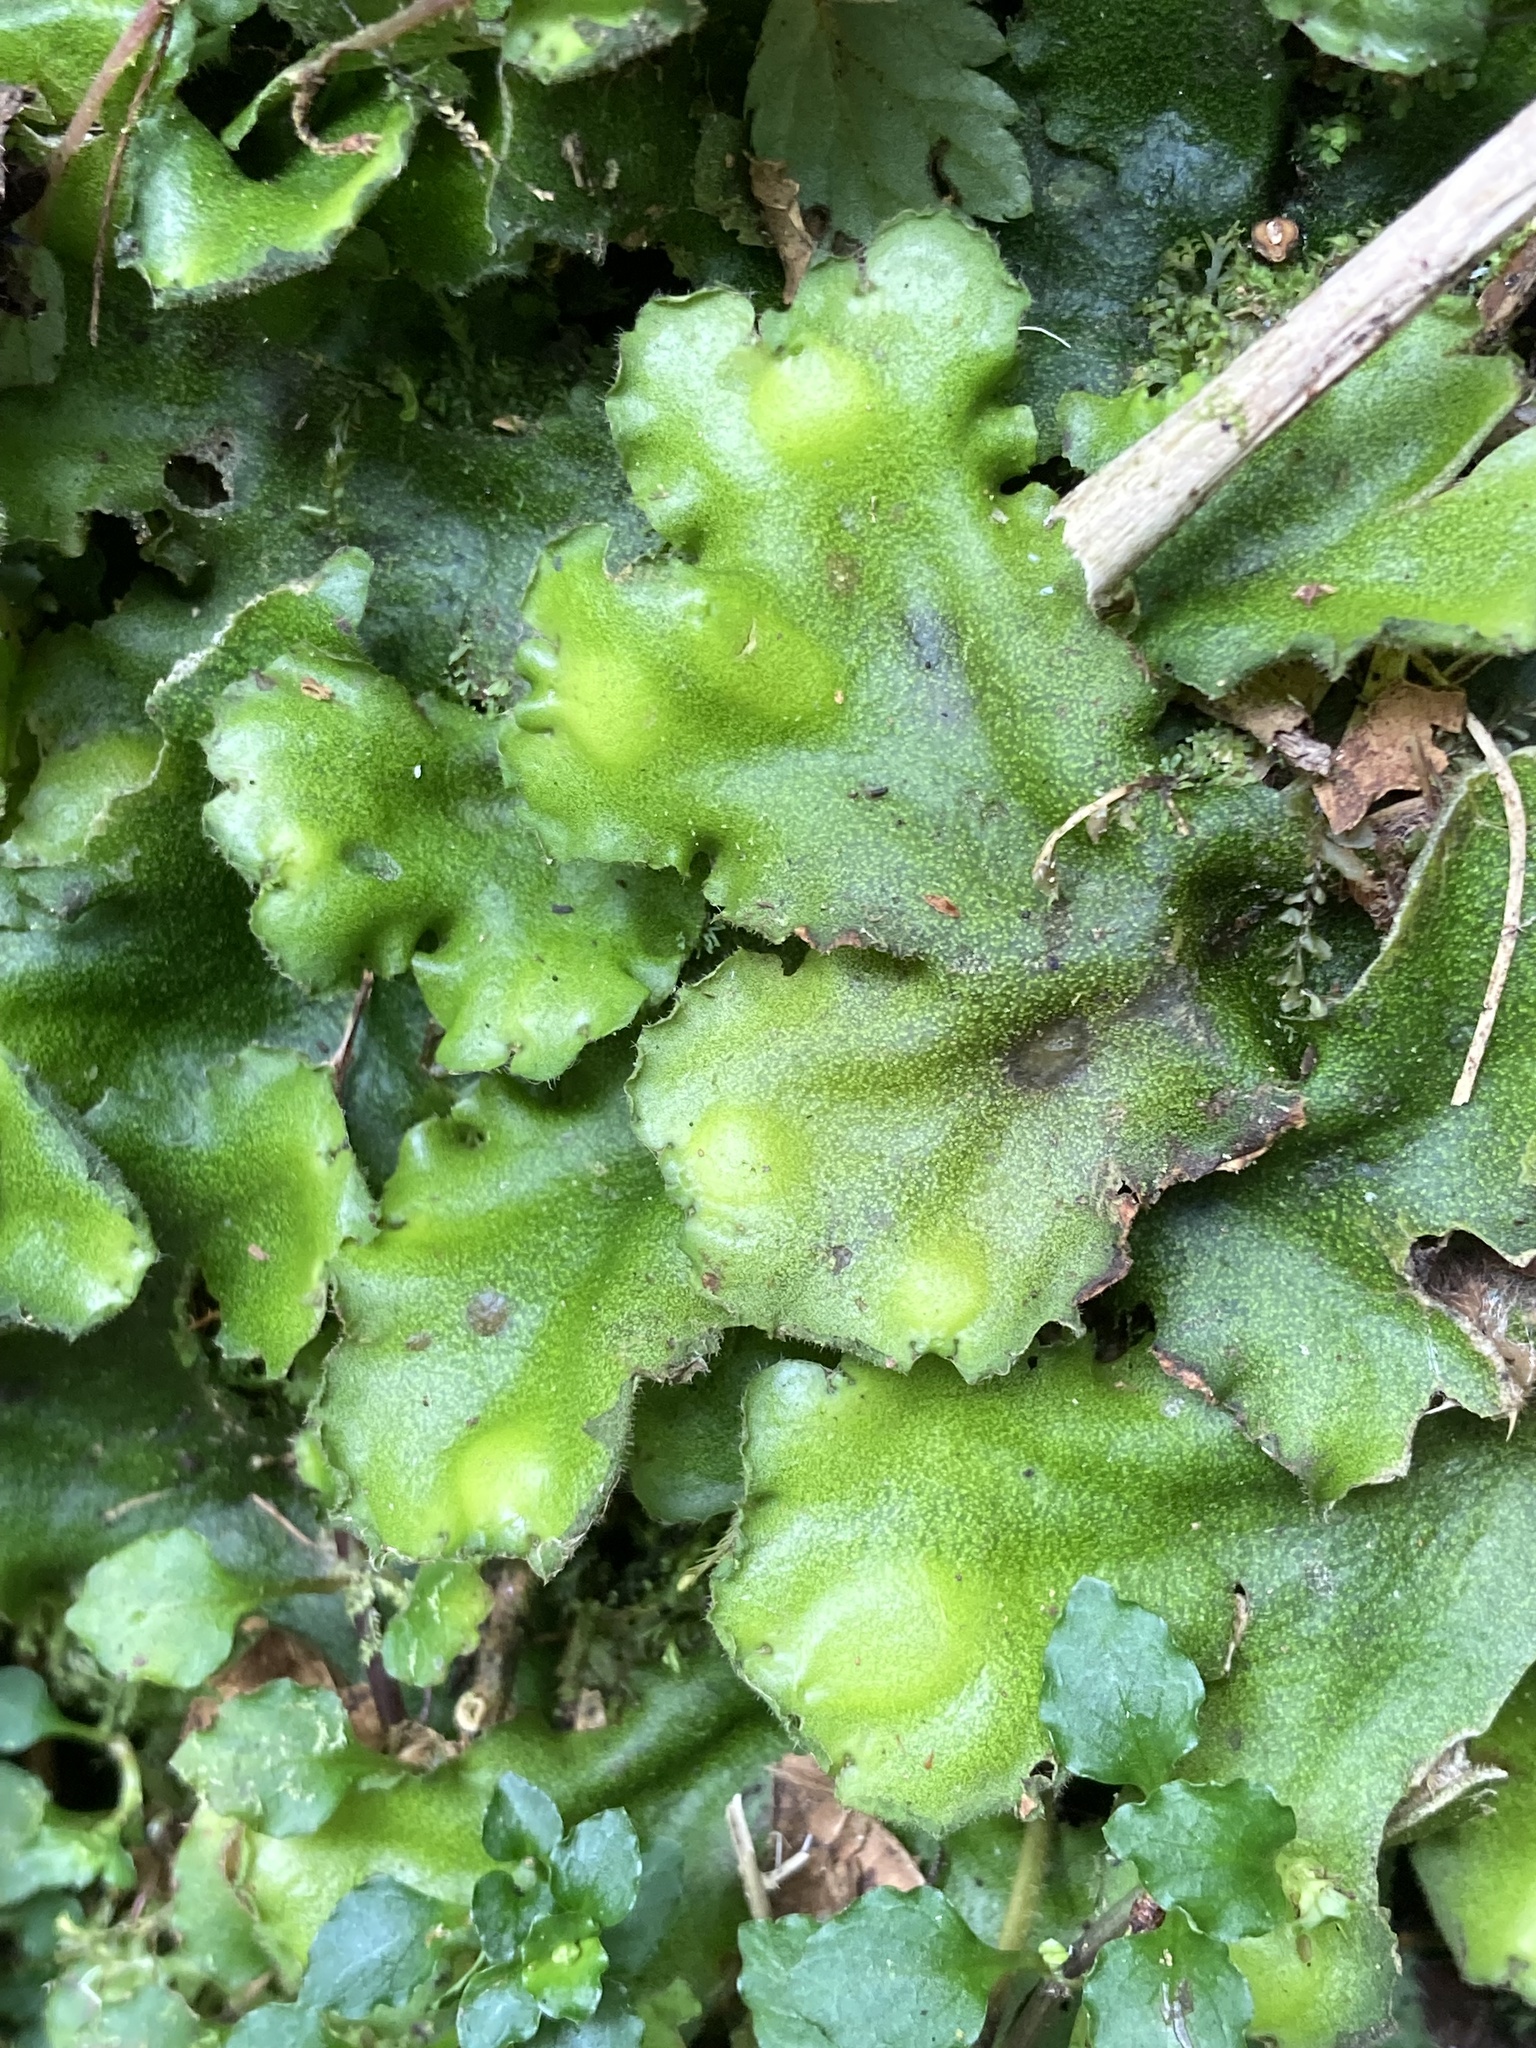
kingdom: Plantae
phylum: Marchantiophyta
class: Marchantiopsida
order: Marchantiales
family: Monocleaceae
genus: Monoclea
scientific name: Monoclea gottschei
